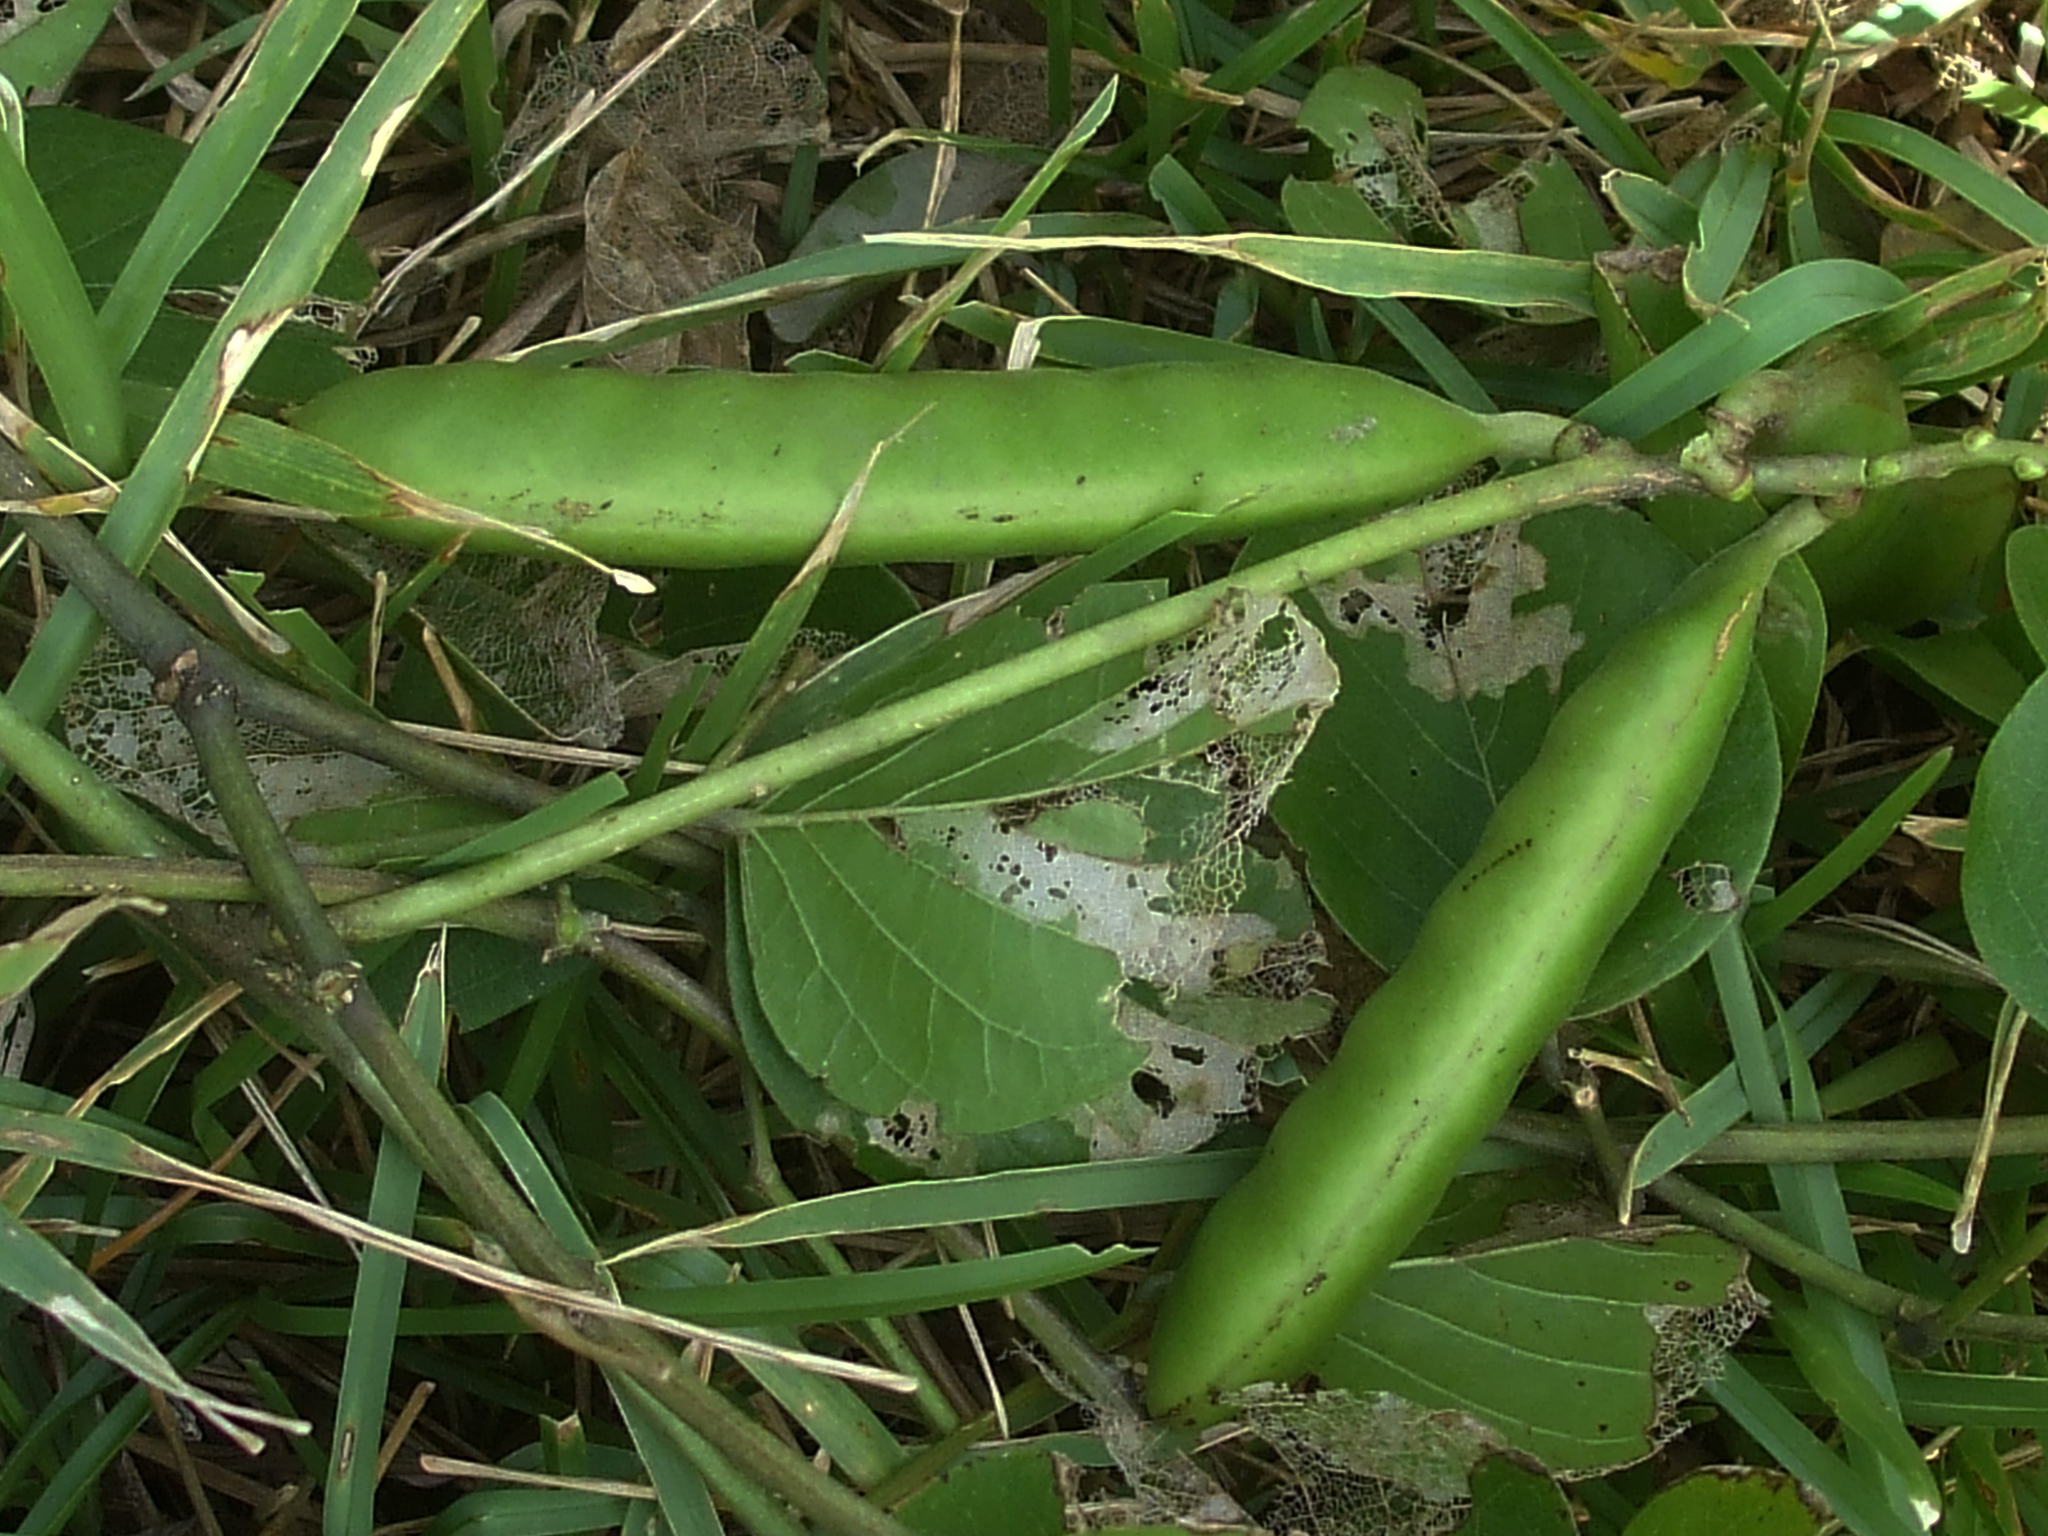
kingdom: Plantae
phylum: Tracheophyta
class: Magnoliopsida
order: Fabales
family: Fabaceae
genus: Canavalia
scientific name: Canavalia rosea
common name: Beach-bean
